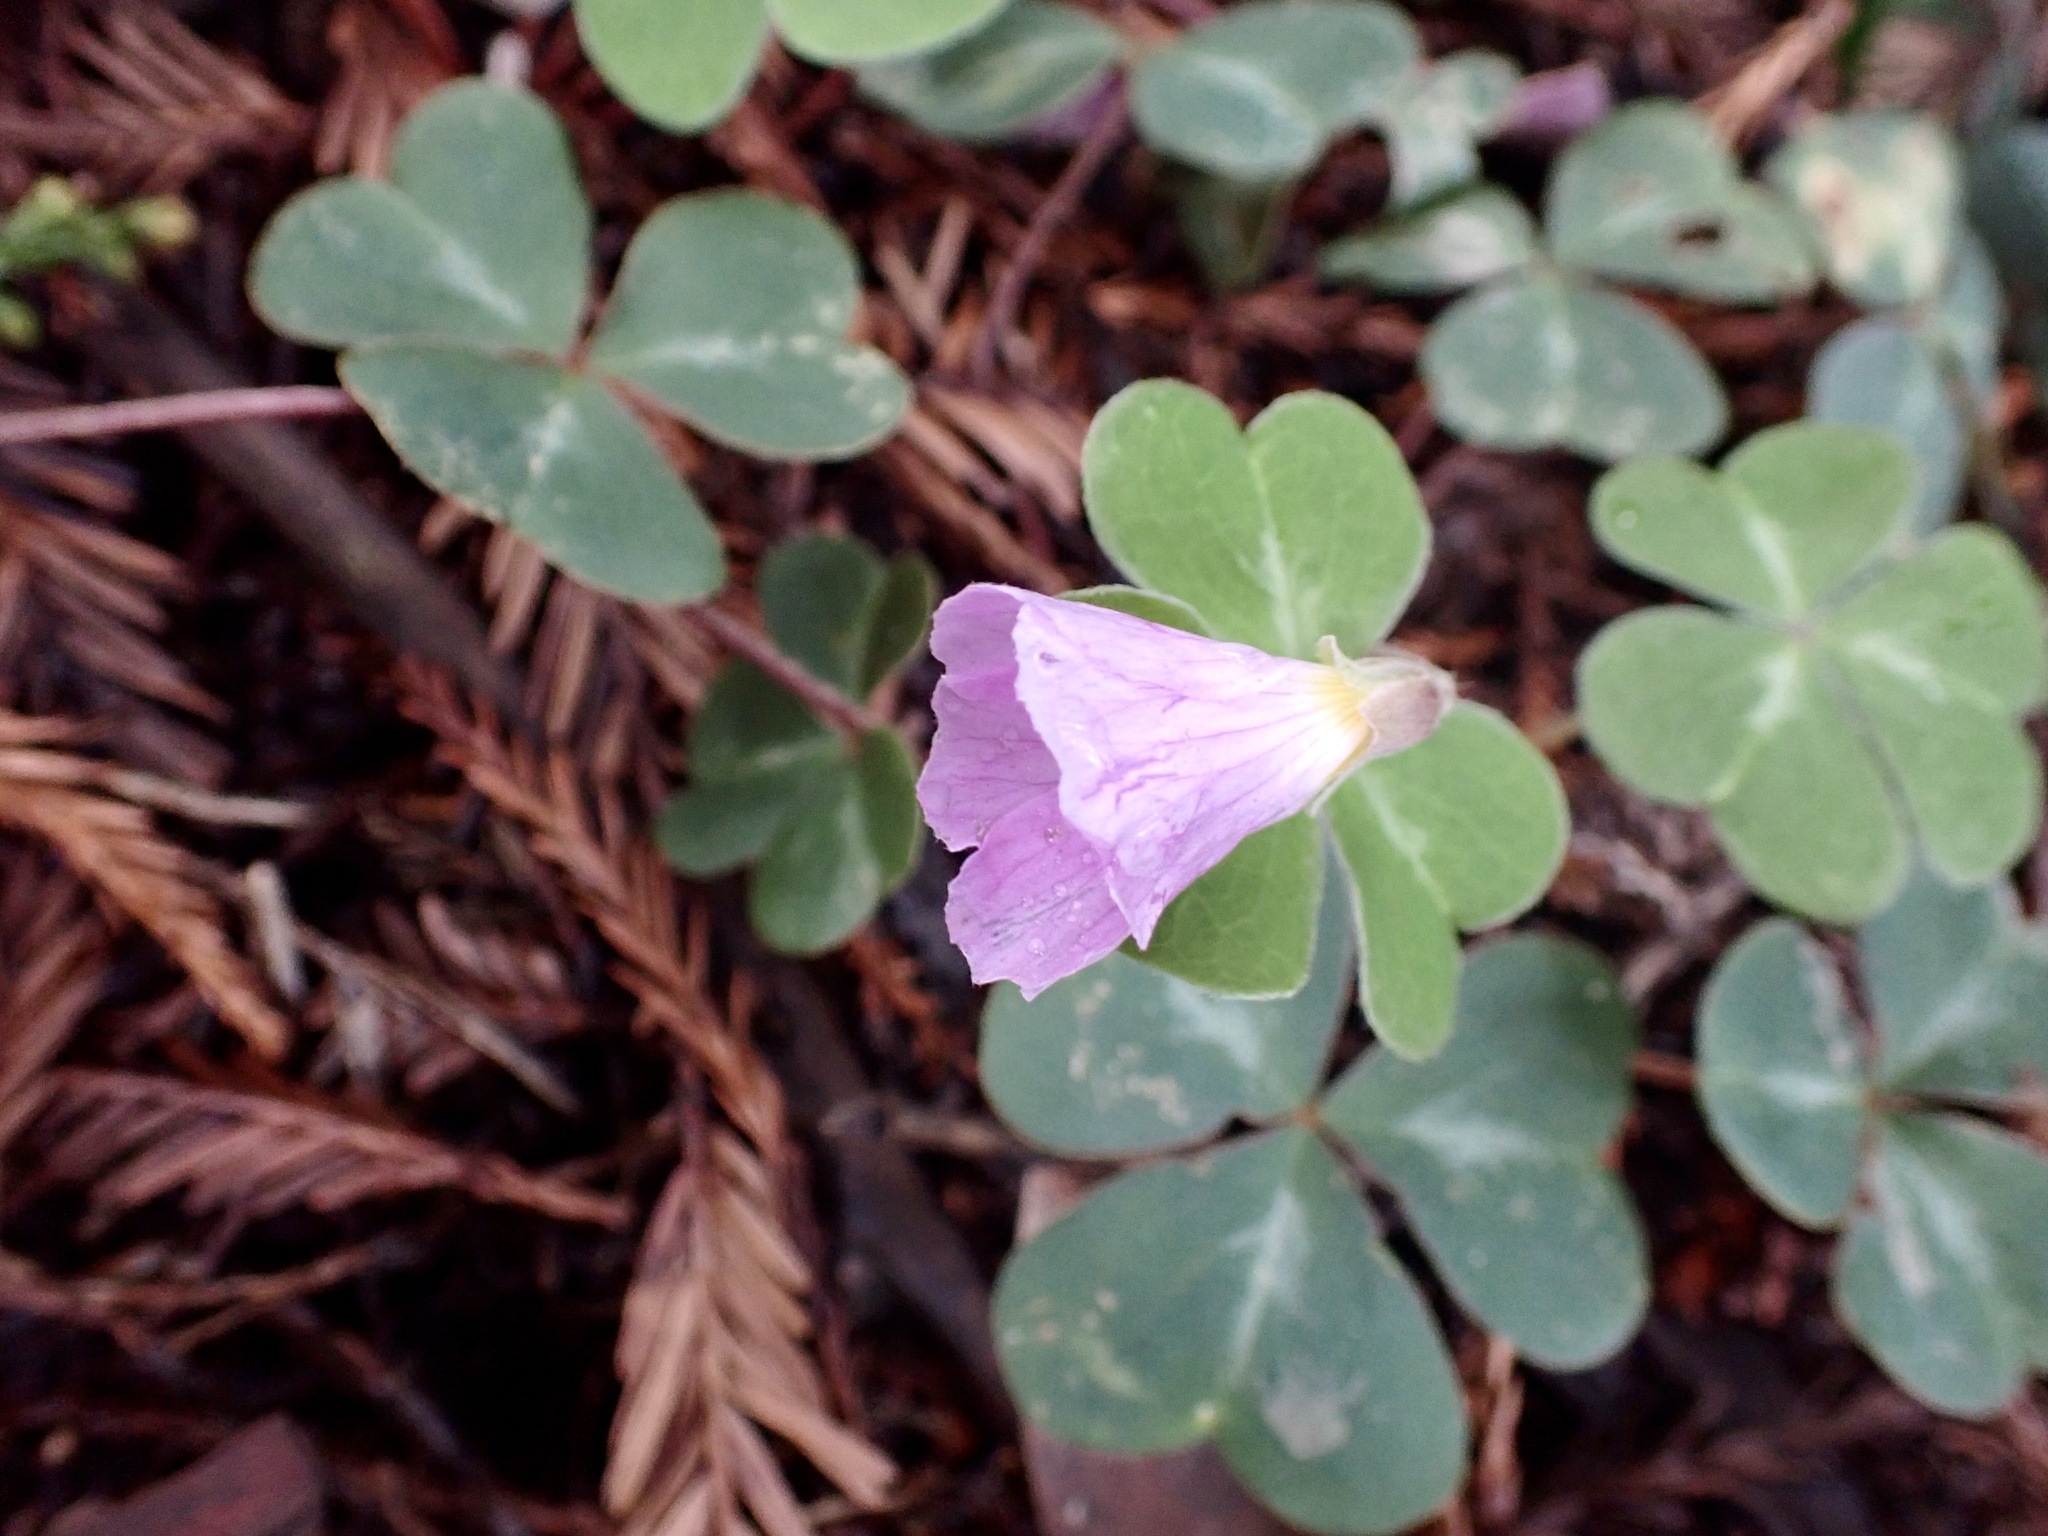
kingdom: Plantae
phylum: Tracheophyta
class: Magnoliopsida
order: Oxalidales
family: Oxalidaceae
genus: Oxalis
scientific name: Oxalis oregana
